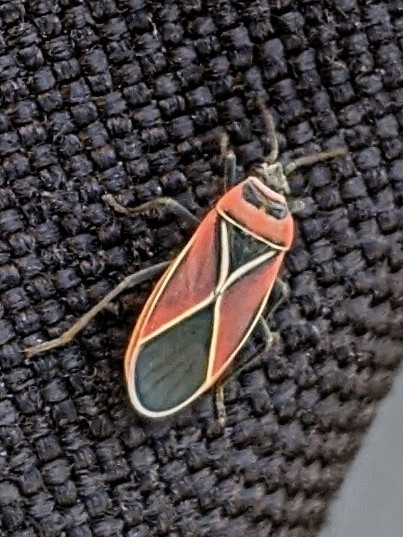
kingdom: Animalia
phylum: Arthropoda
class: Insecta
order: Hemiptera
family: Lygaeidae
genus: Neacoryphus
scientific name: Neacoryphus bicrucis
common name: Lygaeid bug
